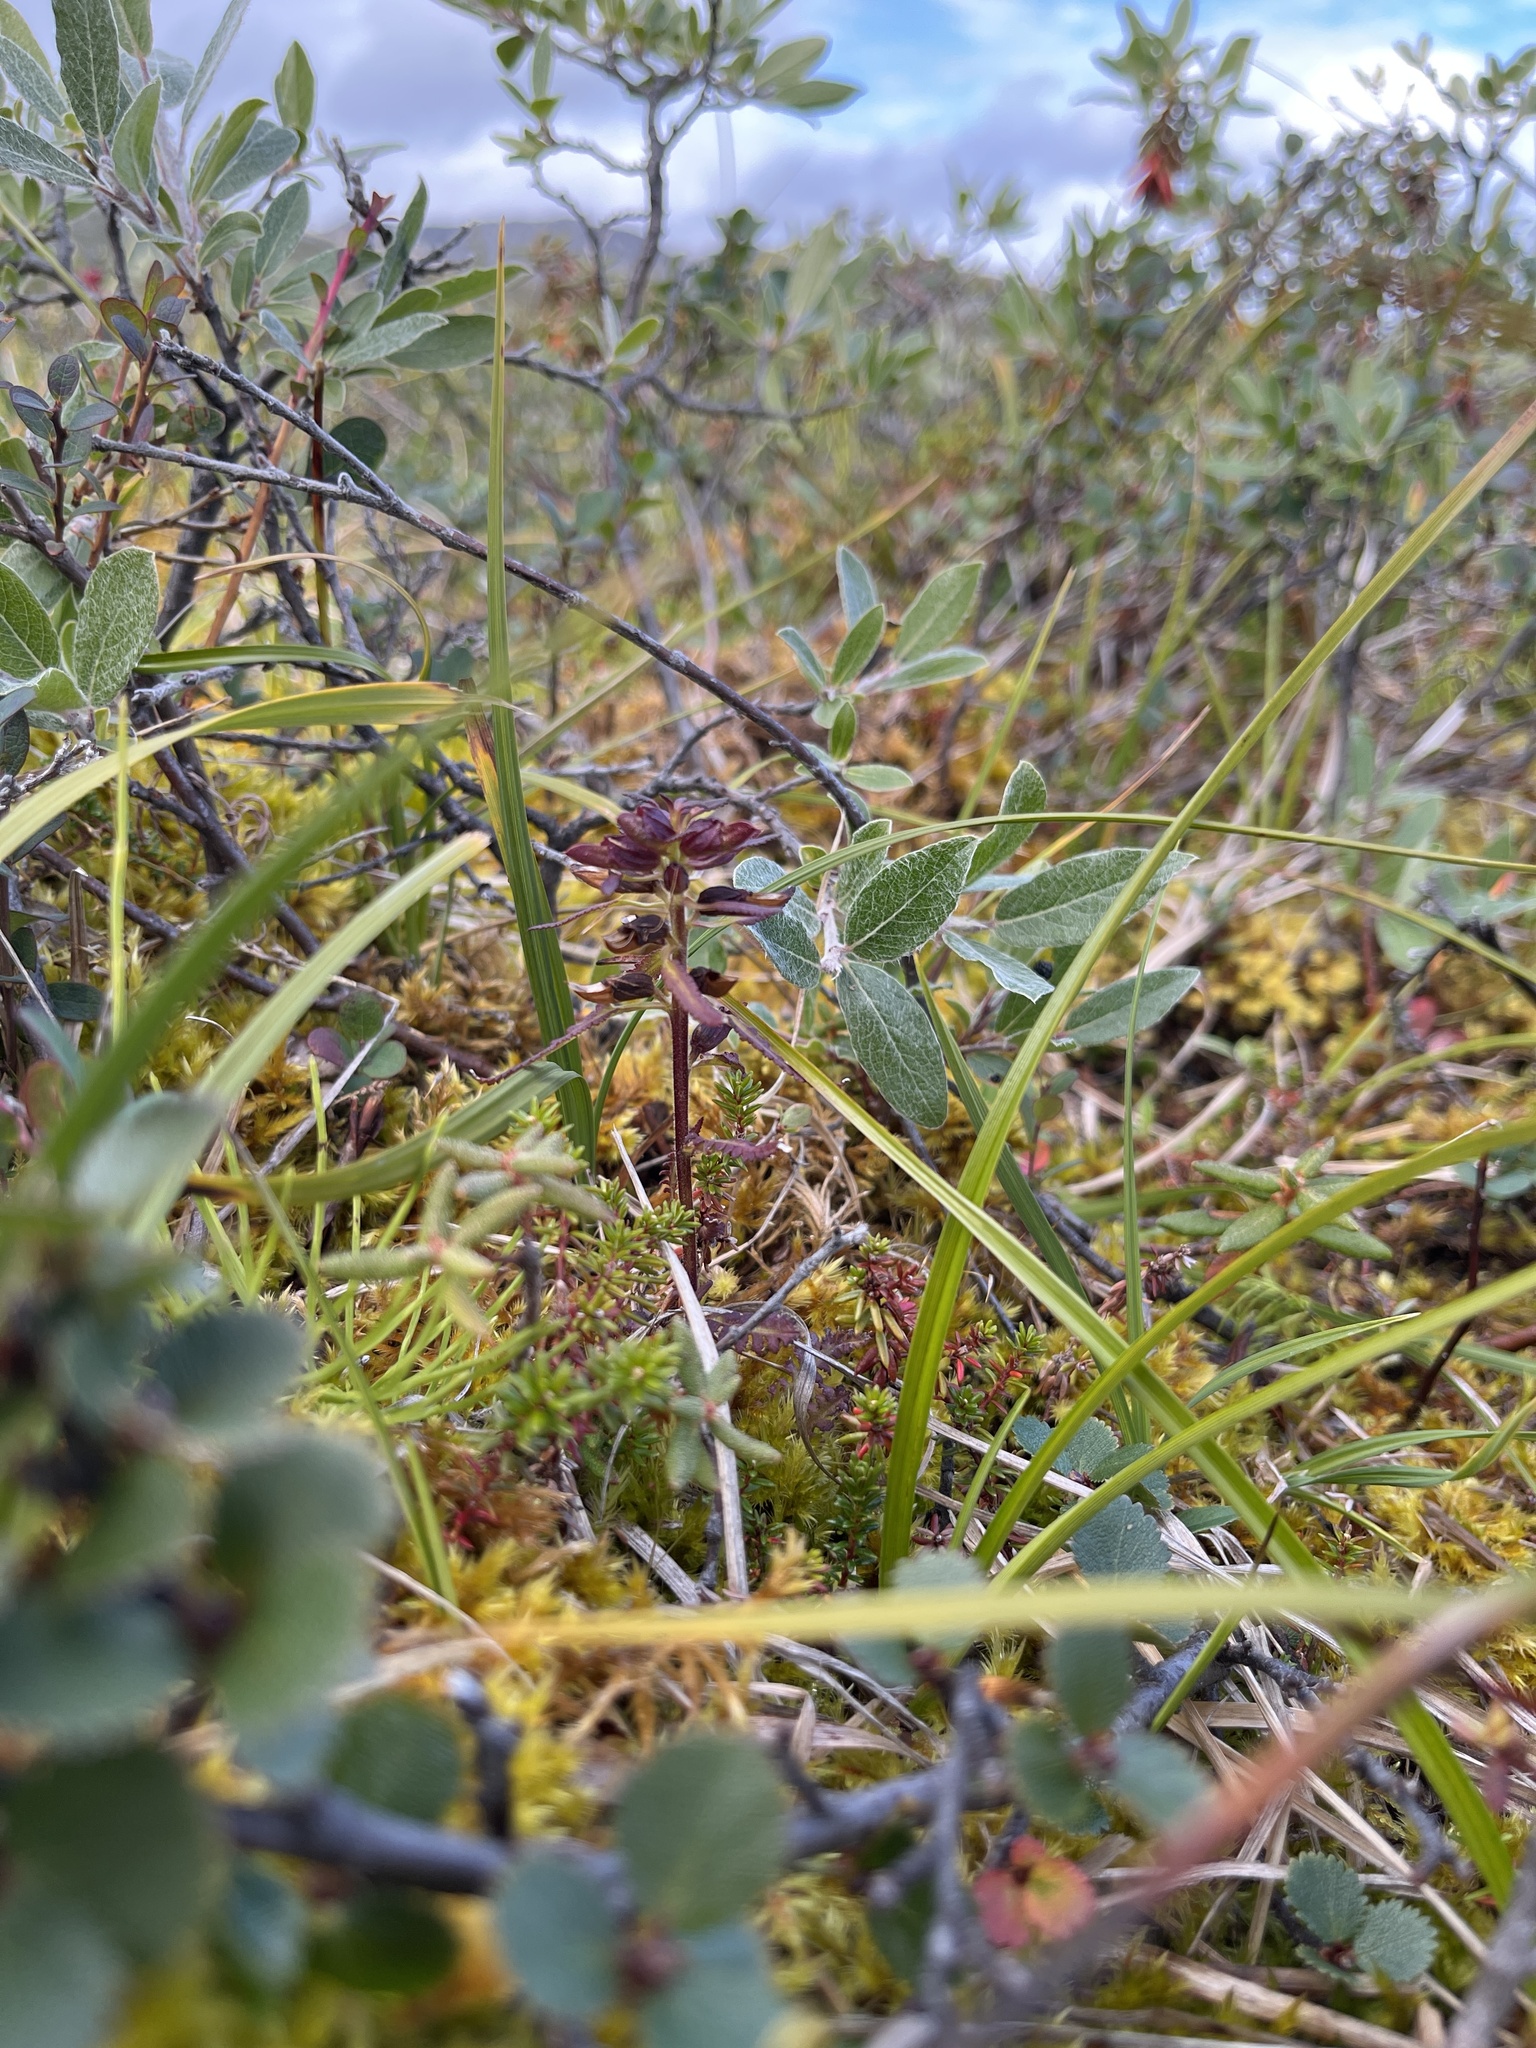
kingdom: Plantae
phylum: Tracheophyta
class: Magnoliopsida
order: Lamiales
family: Orobanchaceae
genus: Pedicularis
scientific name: Pedicularis lapponica
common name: Lapland lousewort
